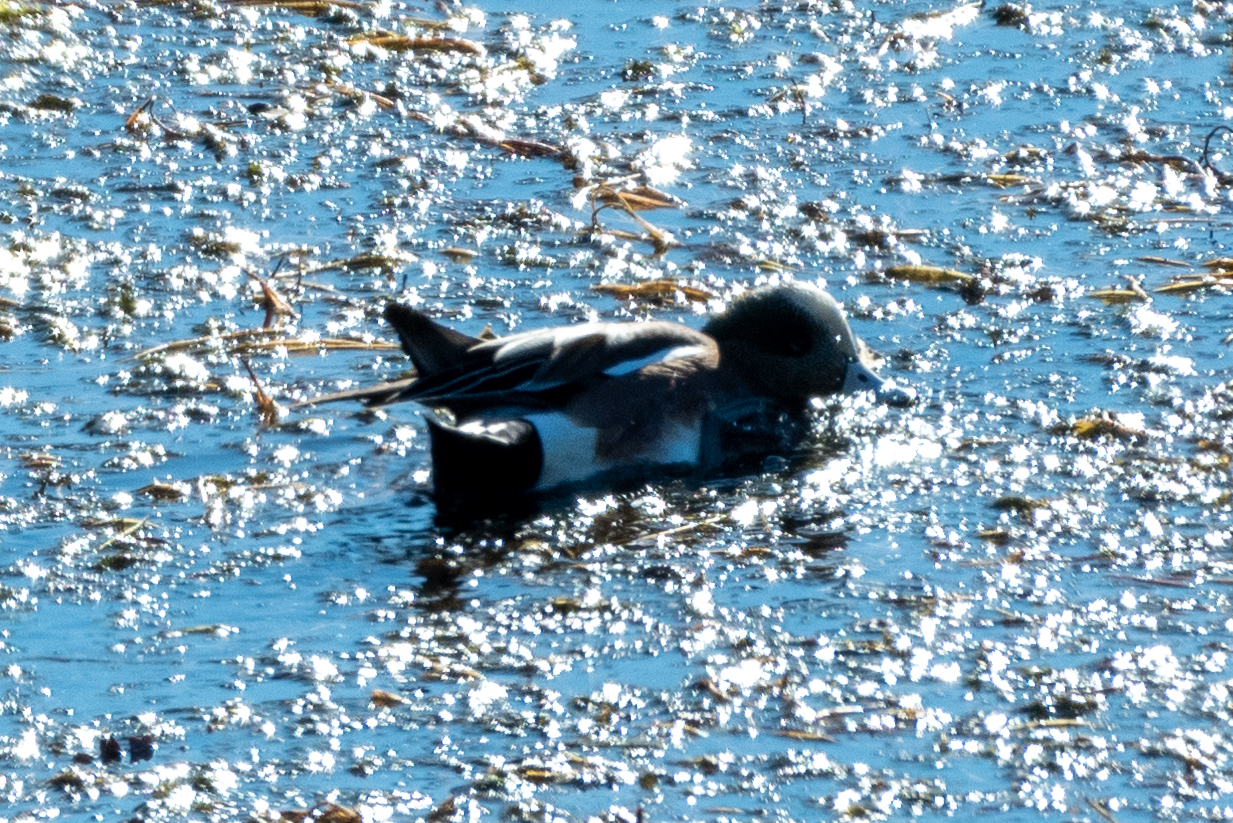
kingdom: Animalia
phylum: Chordata
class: Aves
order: Anseriformes
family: Anatidae
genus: Mareca
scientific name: Mareca americana
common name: American wigeon
